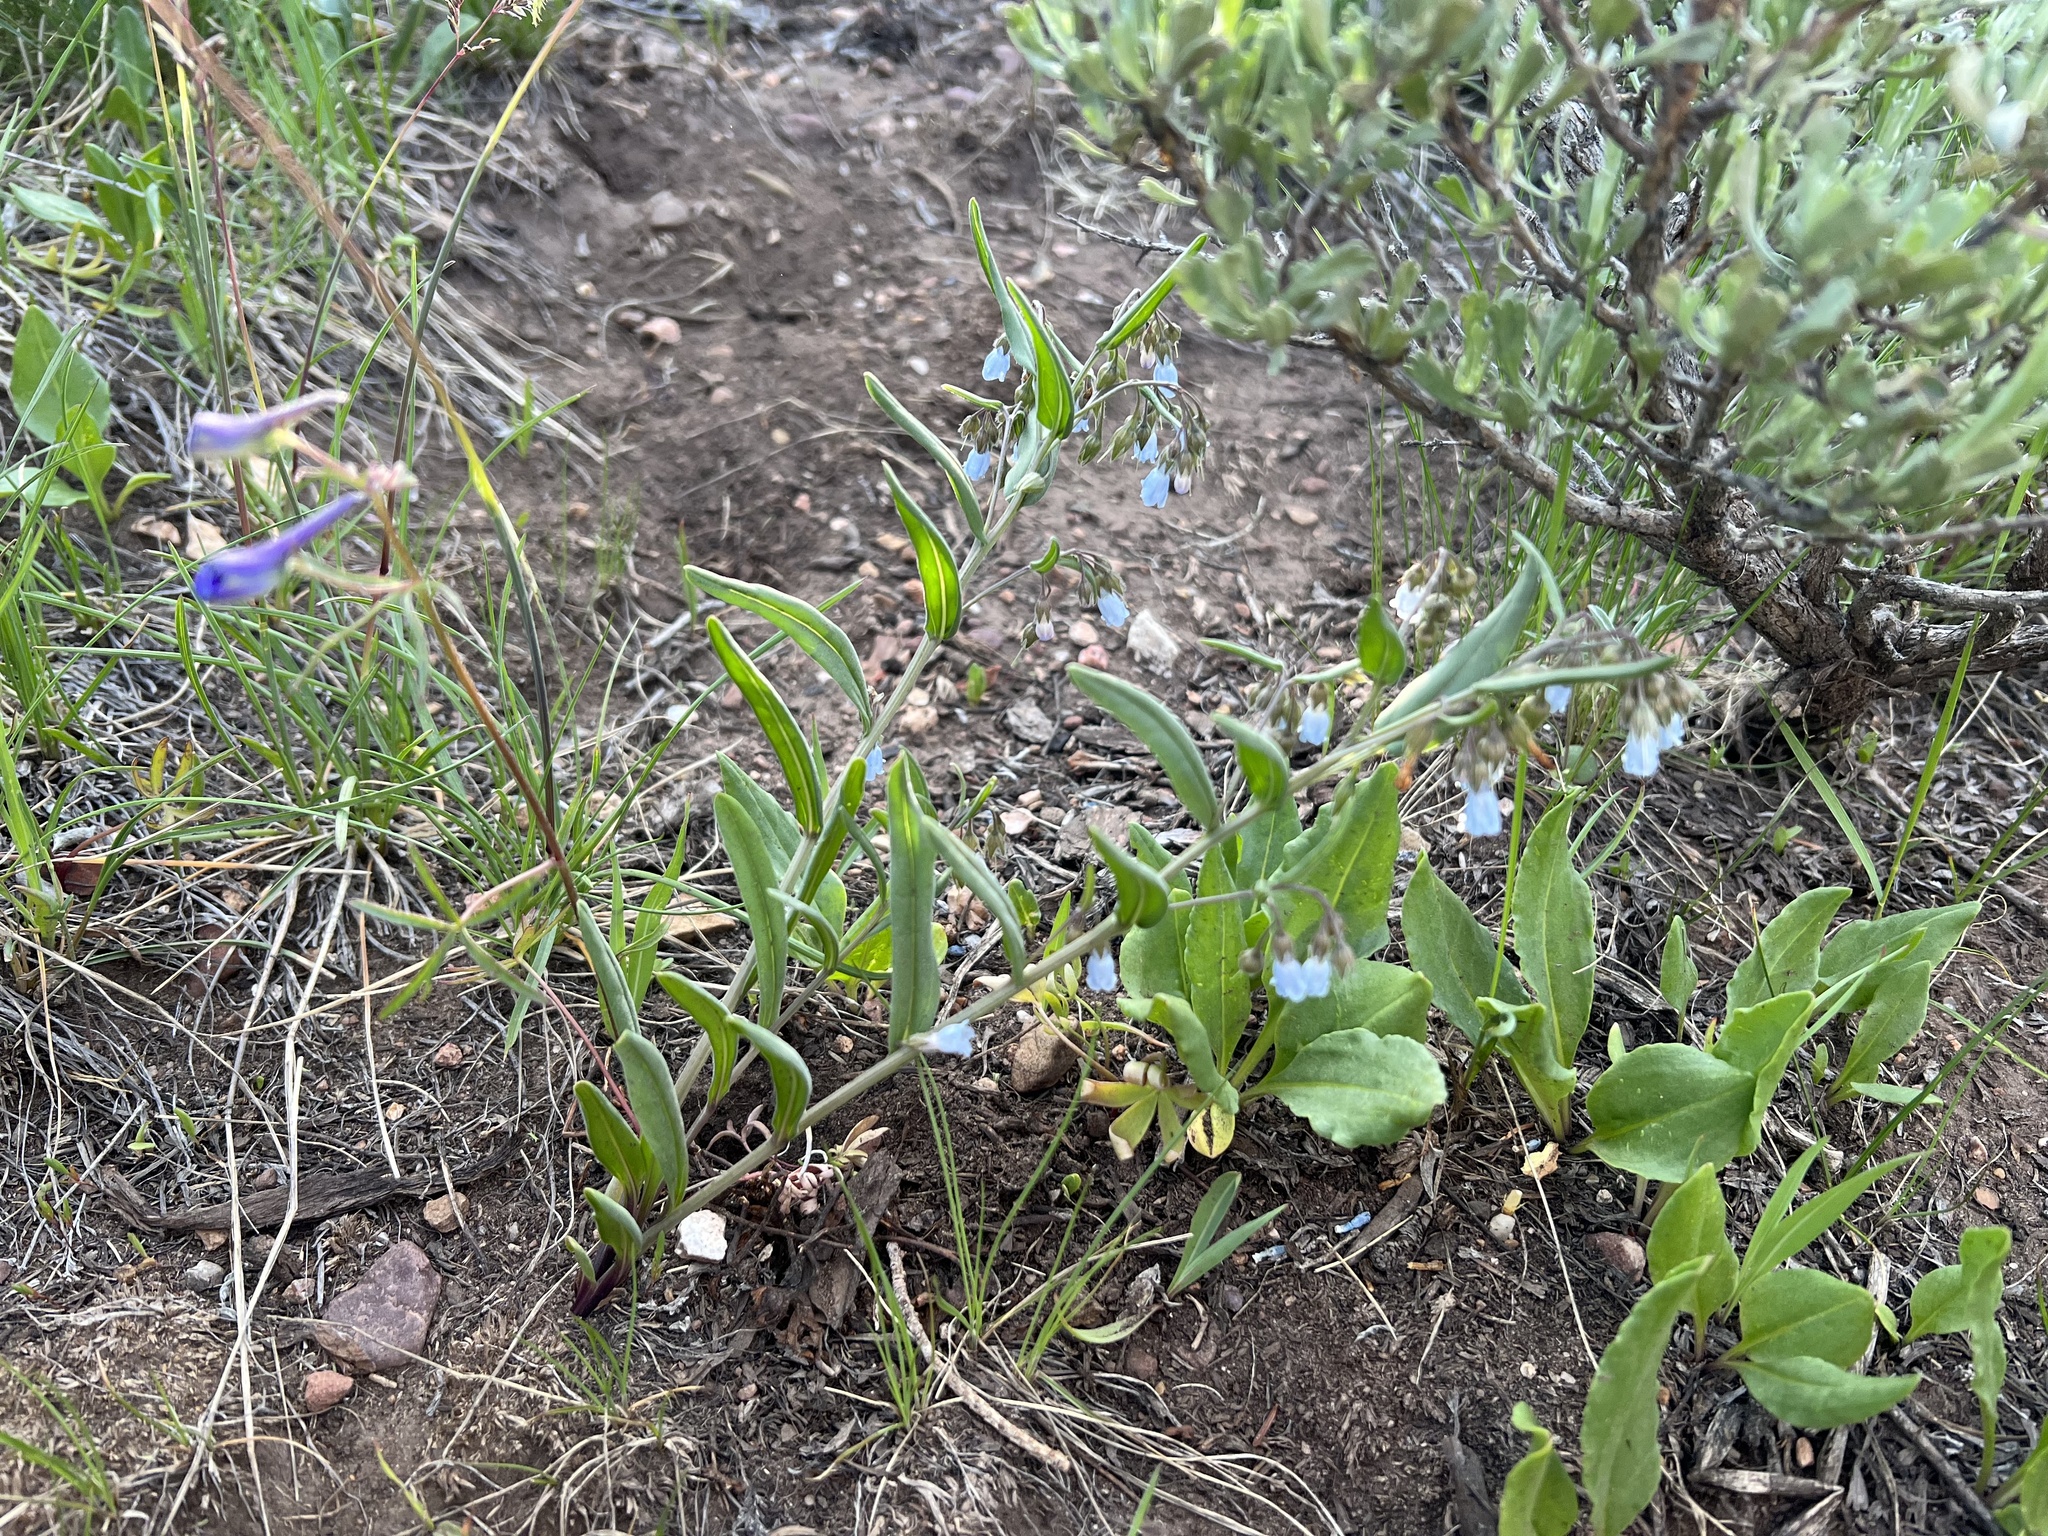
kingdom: Plantae
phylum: Tracheophyta
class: Magnoliopsida
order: Boraginales
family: Boraginaceae
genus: Mertensia
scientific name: Mertensia oblongifolia
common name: Sagebrush bluebells
